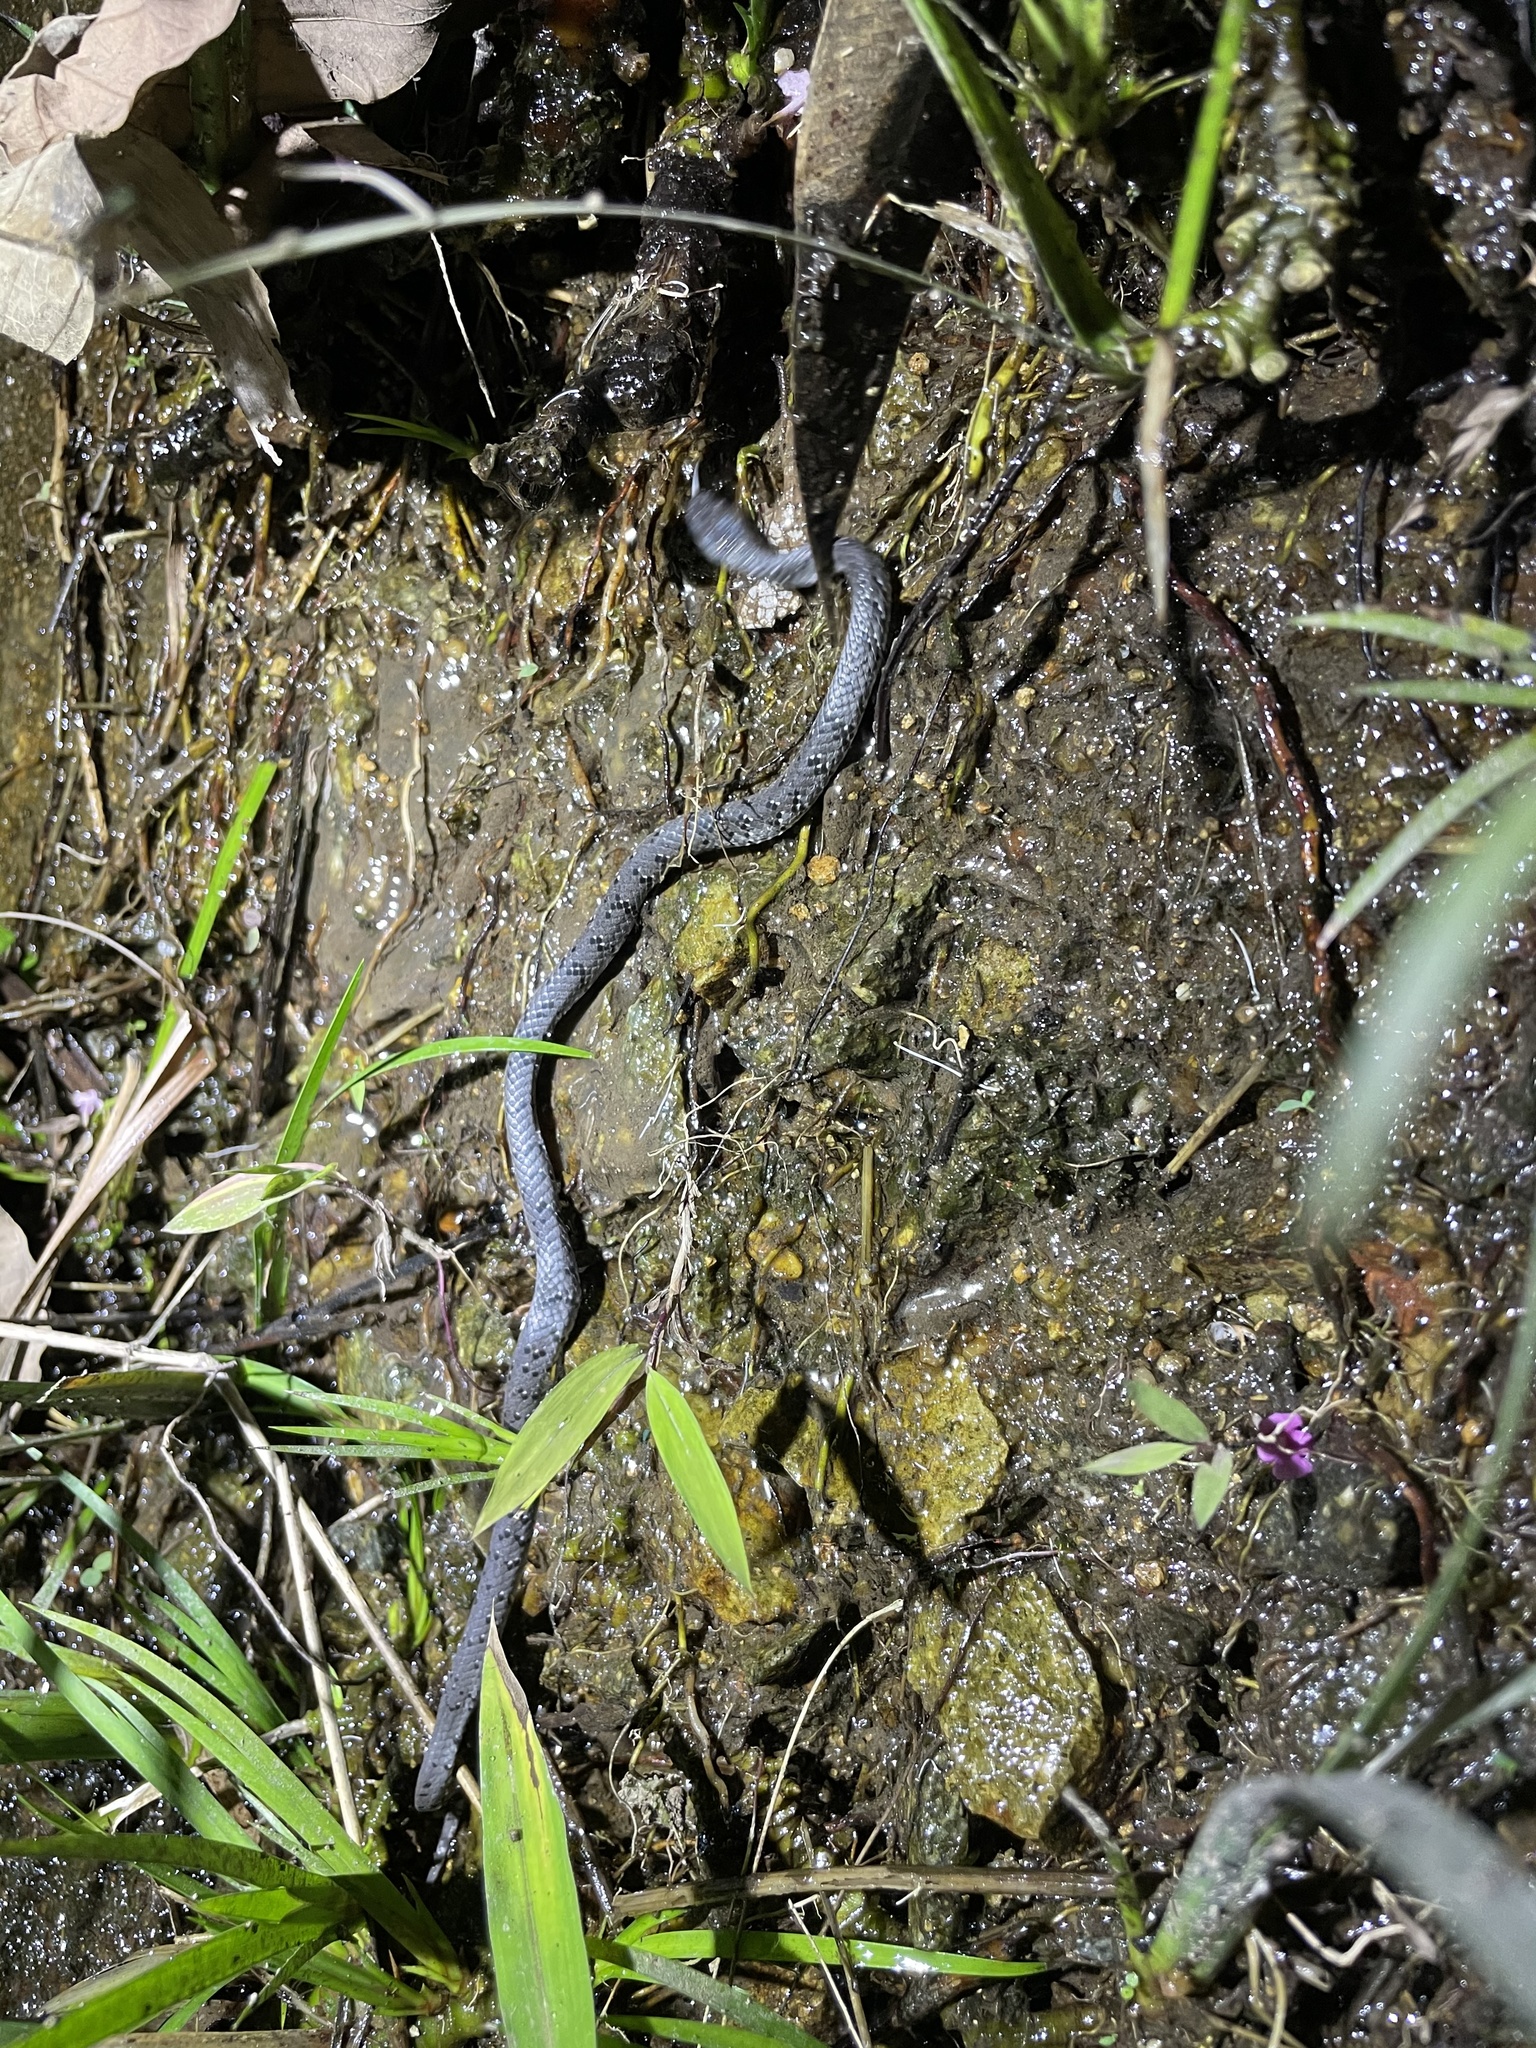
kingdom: Animalia
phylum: Chordata
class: Squamata
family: Pareidae
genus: Pareas
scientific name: Pareas margaritophorus
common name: Mountain slug snake
